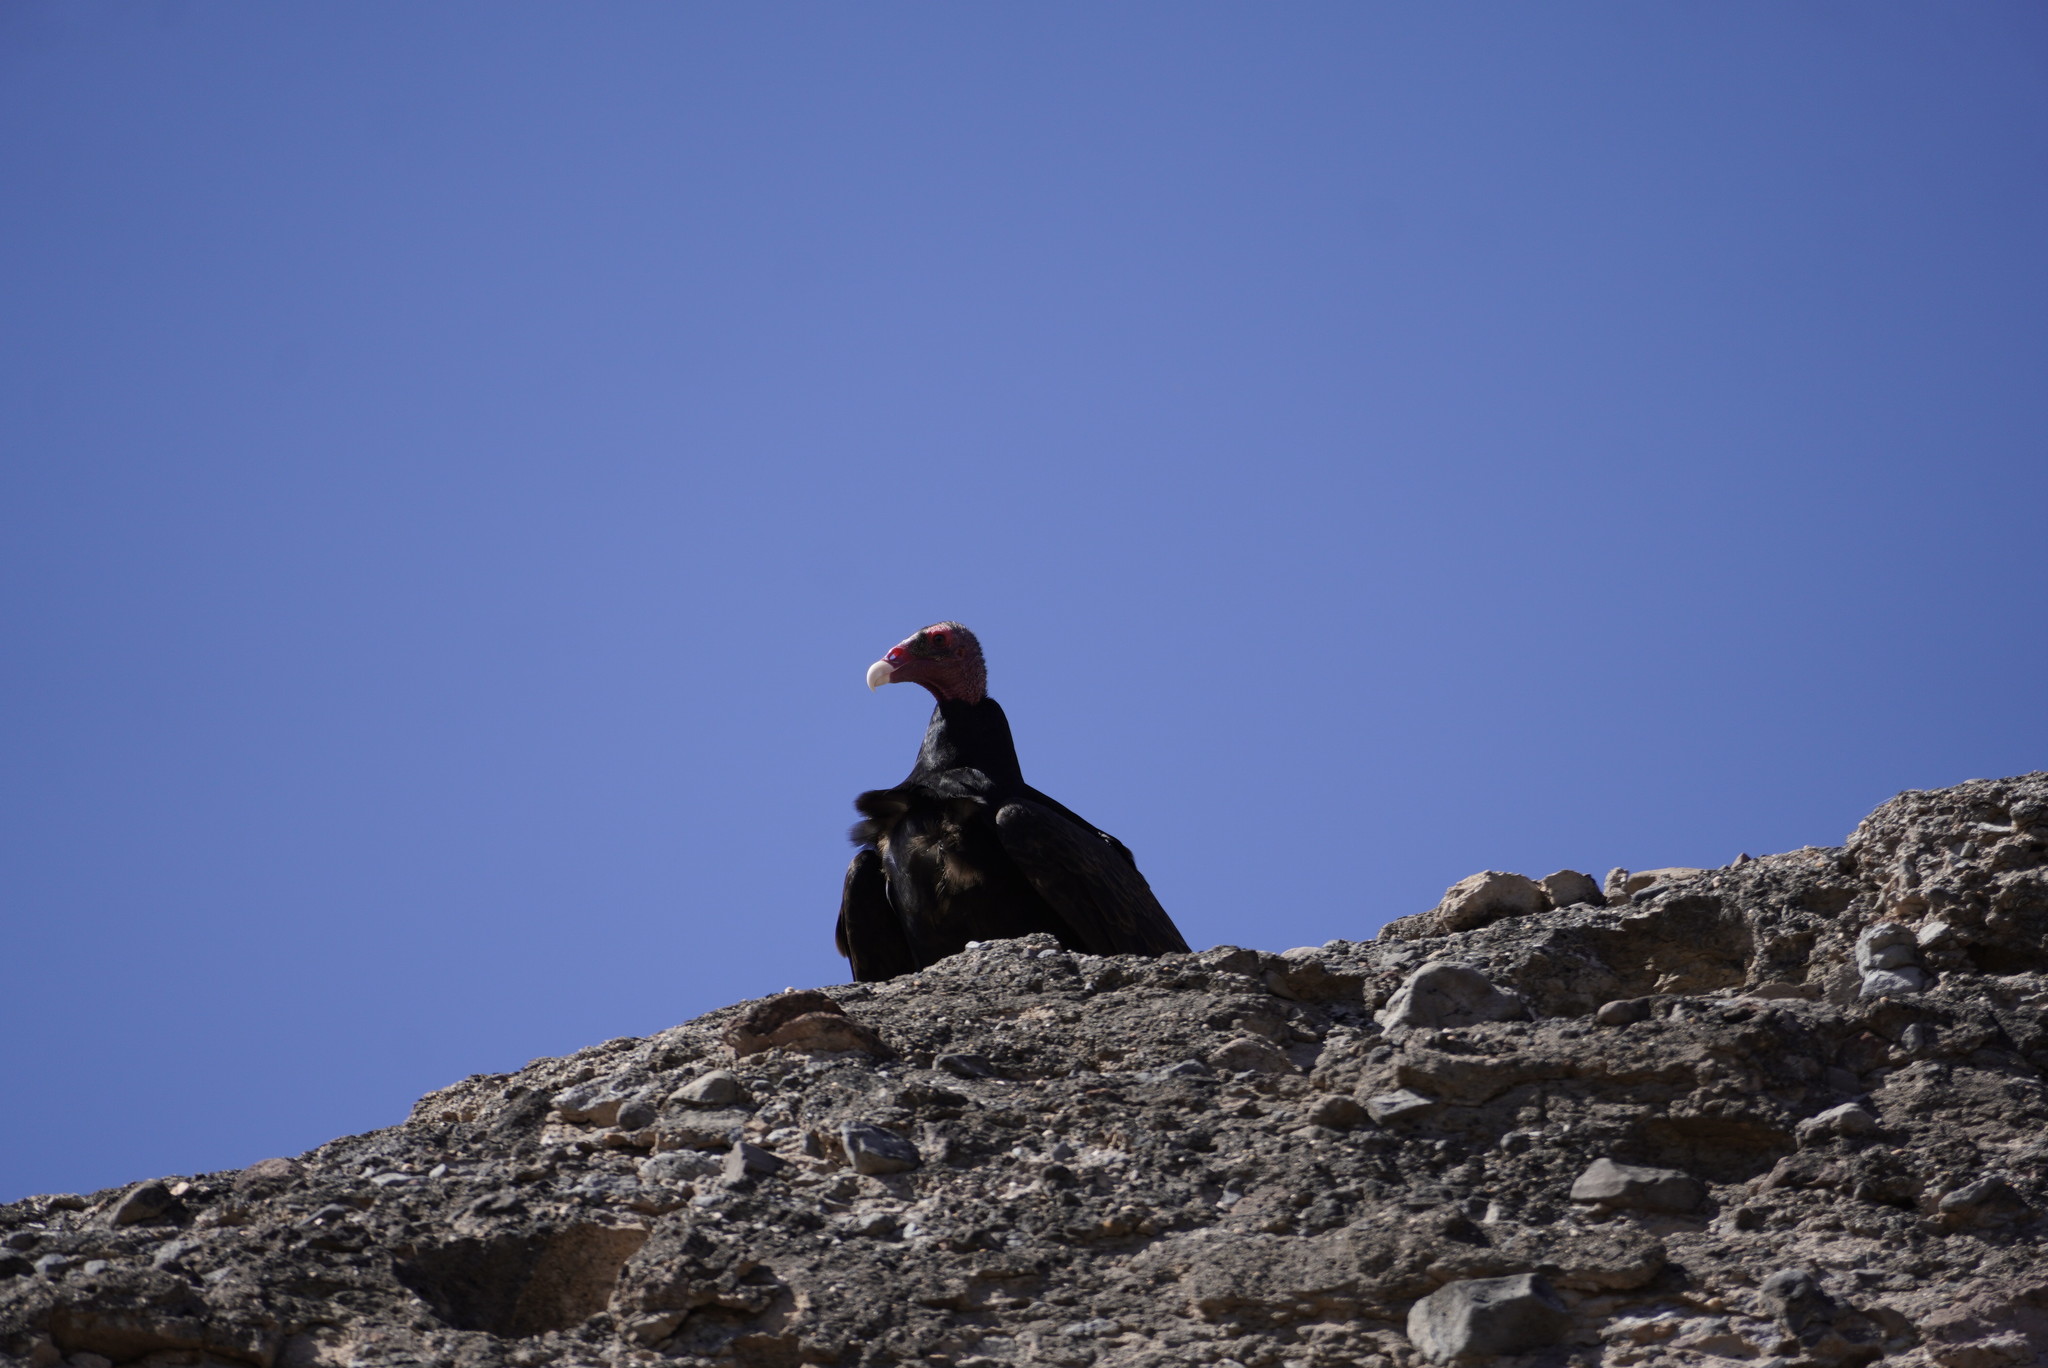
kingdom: Animalia
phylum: Chordata
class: Aves
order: Accipitriformes
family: Cathartidae
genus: Cathartes
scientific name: Cathartes aura
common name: Turkey vulture
